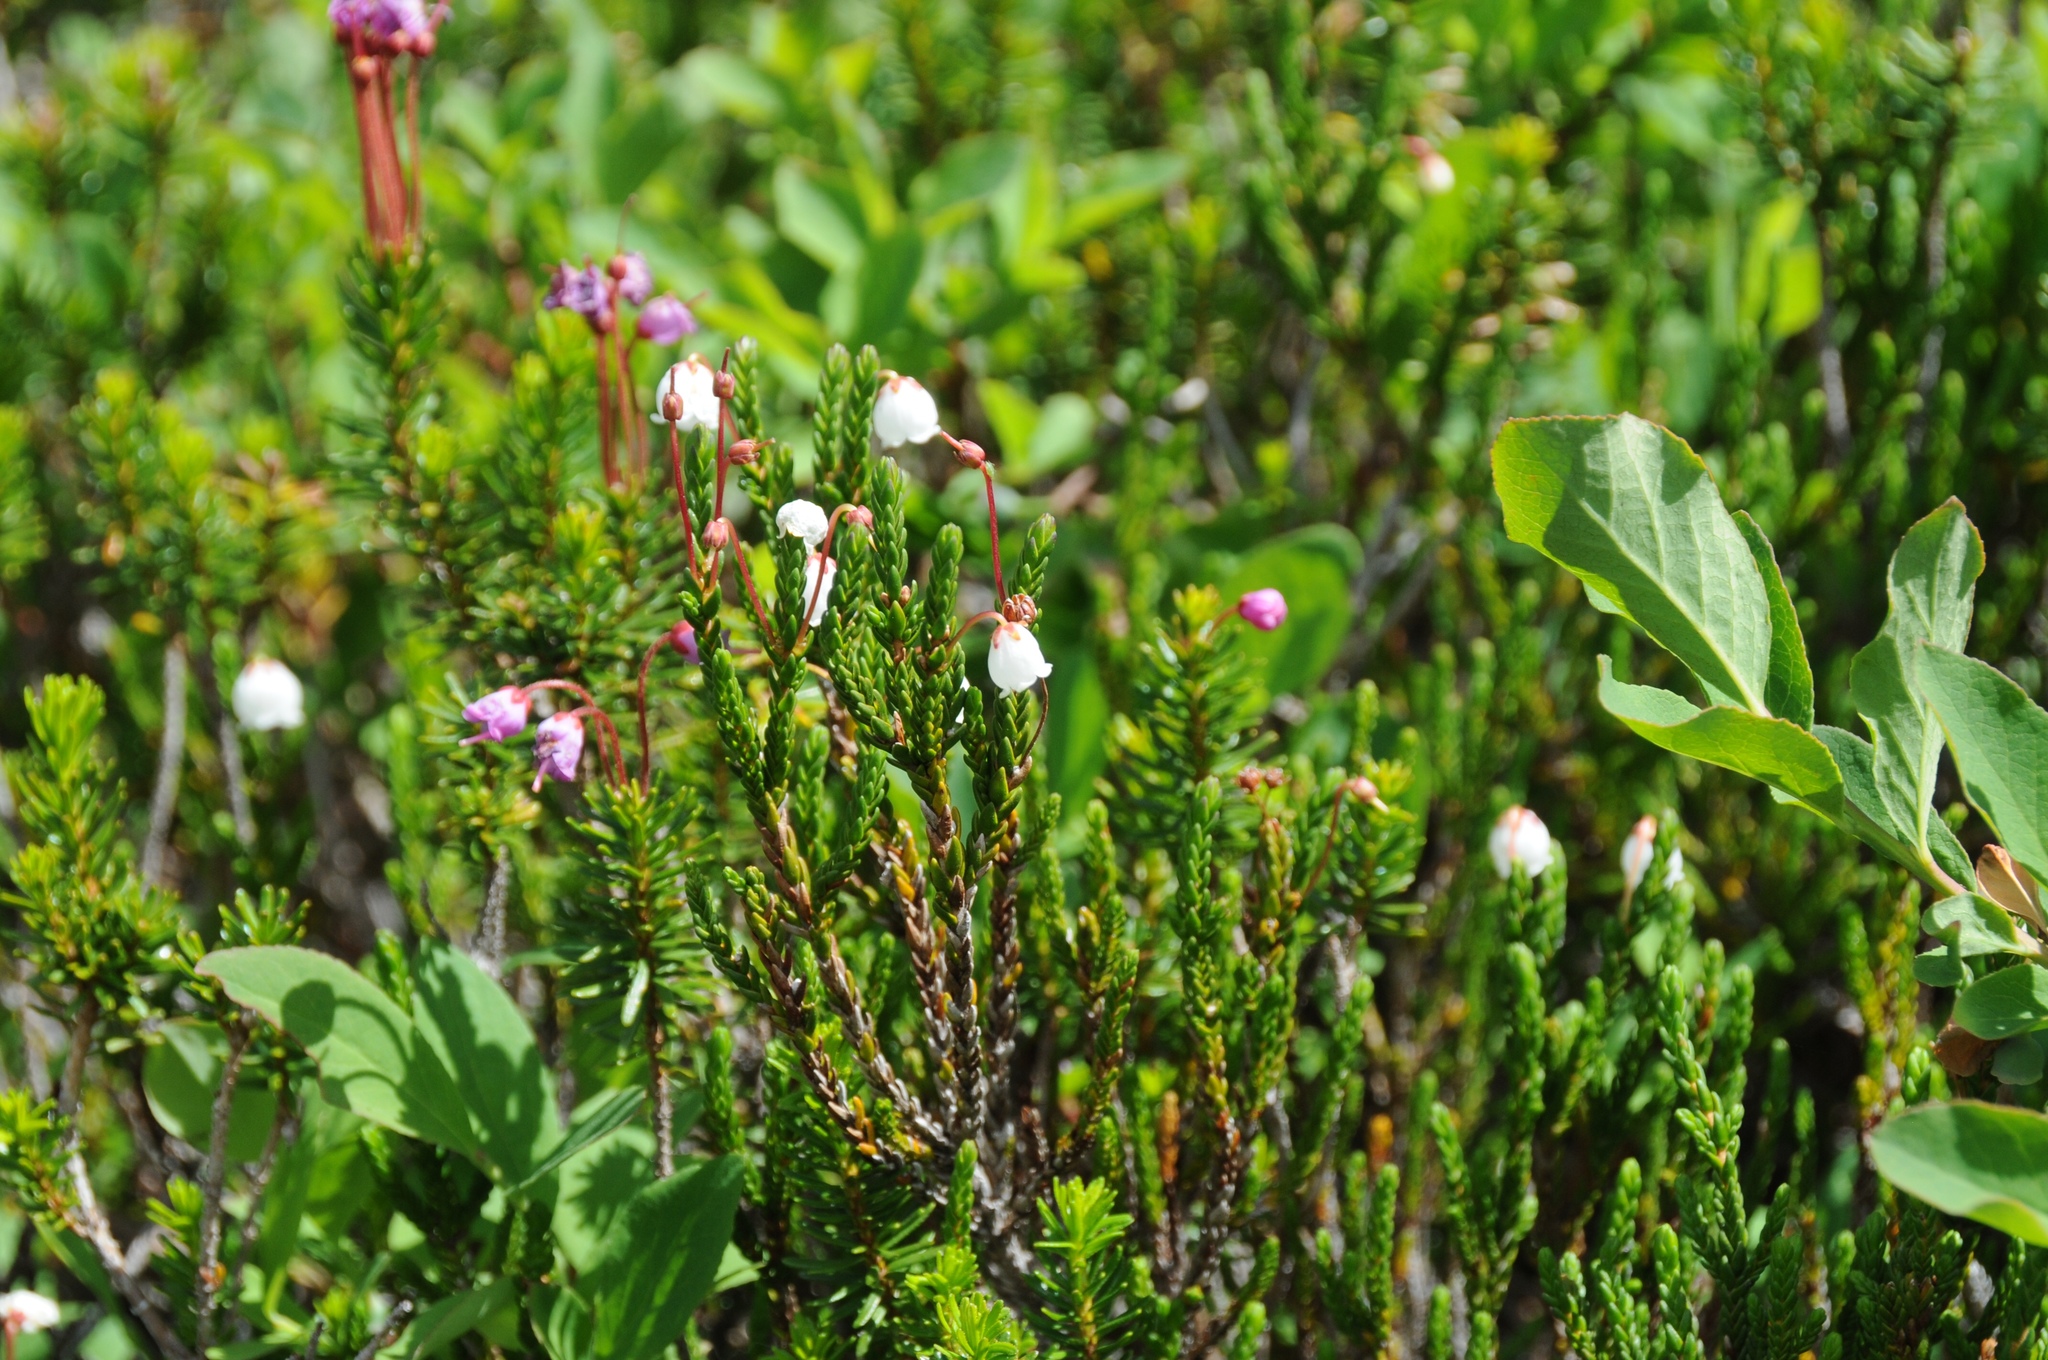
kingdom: Plantae
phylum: Tracheophyta
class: Magnoliopsida
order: Ericales
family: Ericaceae
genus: Cassiope
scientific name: Cassiope mertensiana
